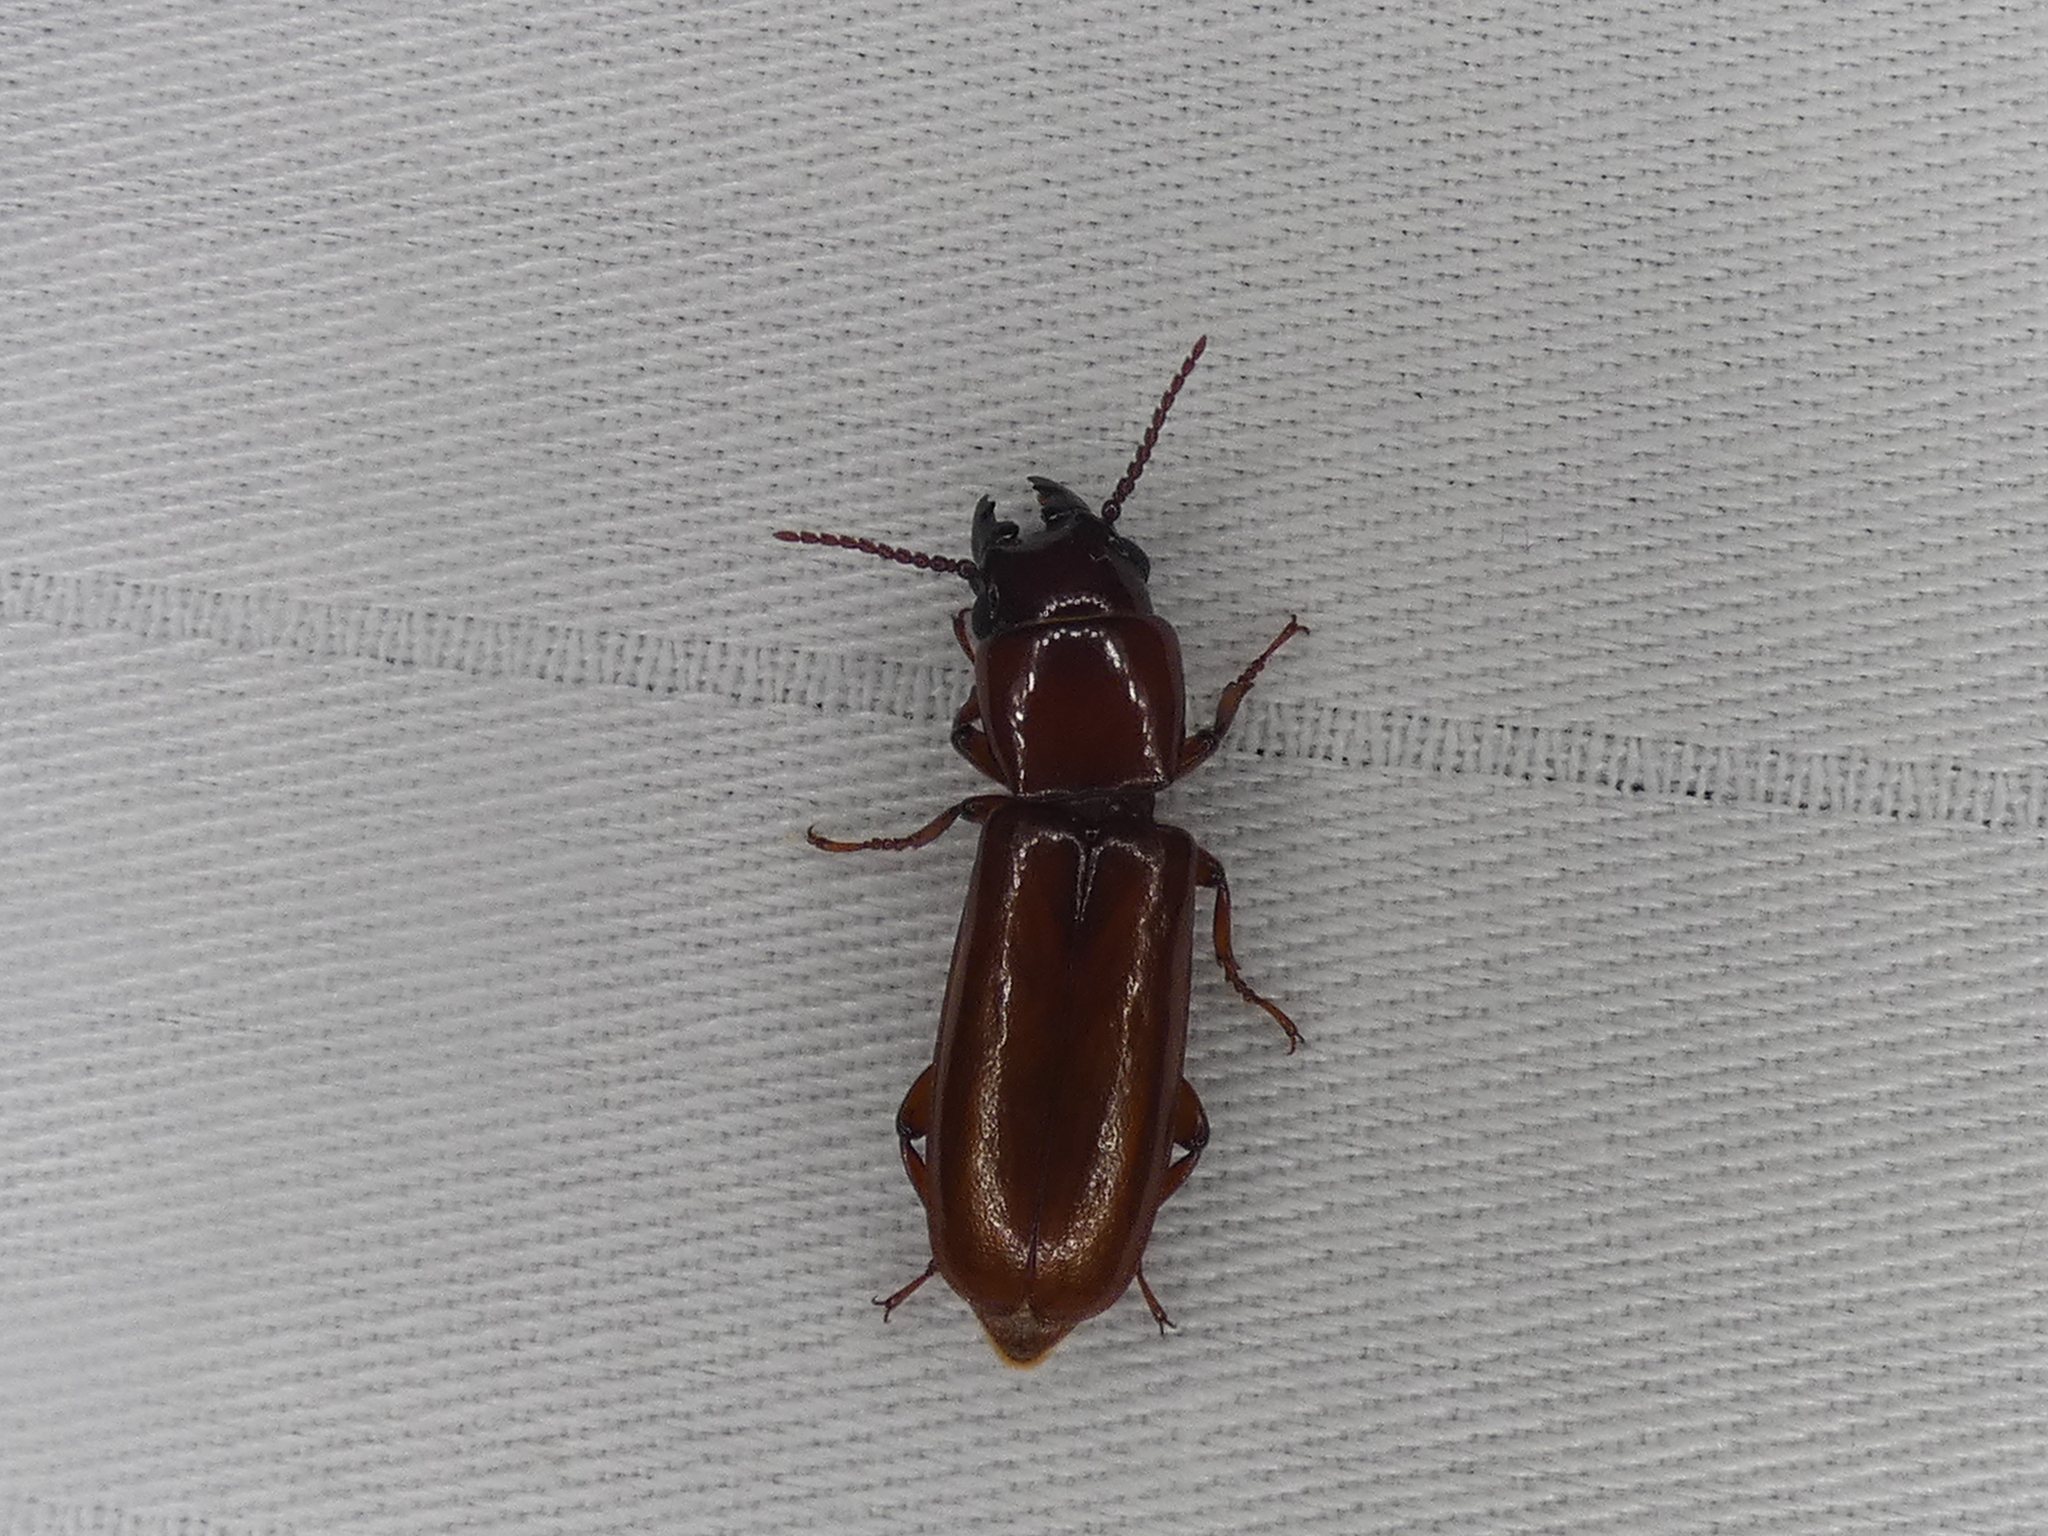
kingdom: Animalia
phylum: Arthropoda
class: Insecta
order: Coleoptera
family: Cerambycidae
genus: Parandra
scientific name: Parandra polita
